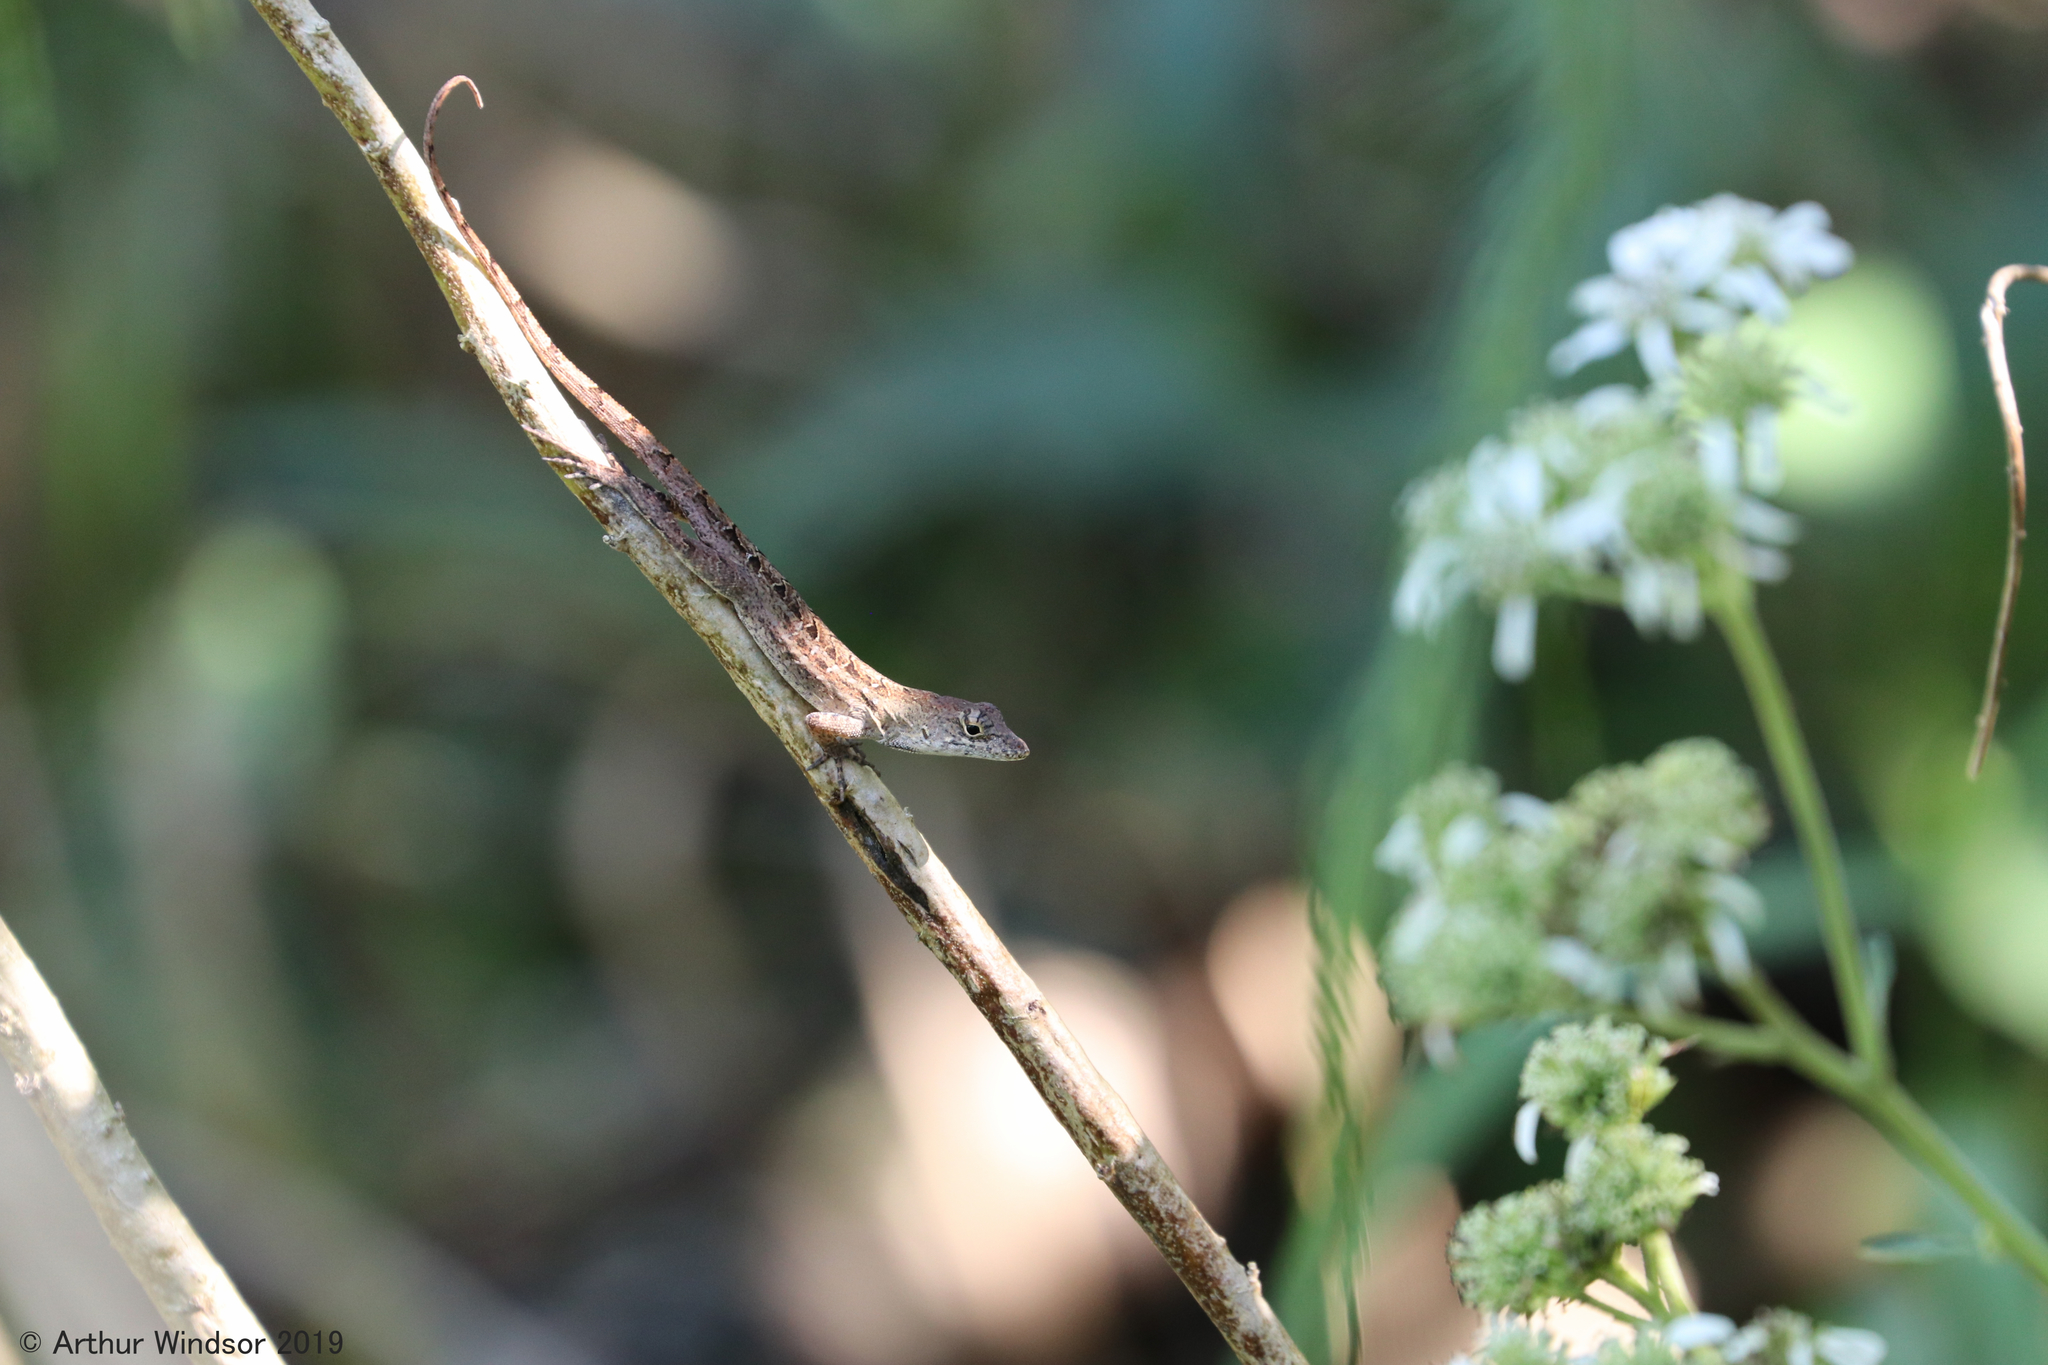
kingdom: Animalia
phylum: Chordata
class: Squamata
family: Dactyloidae
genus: Anolis
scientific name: Anolis sagrei
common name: Brown anole
